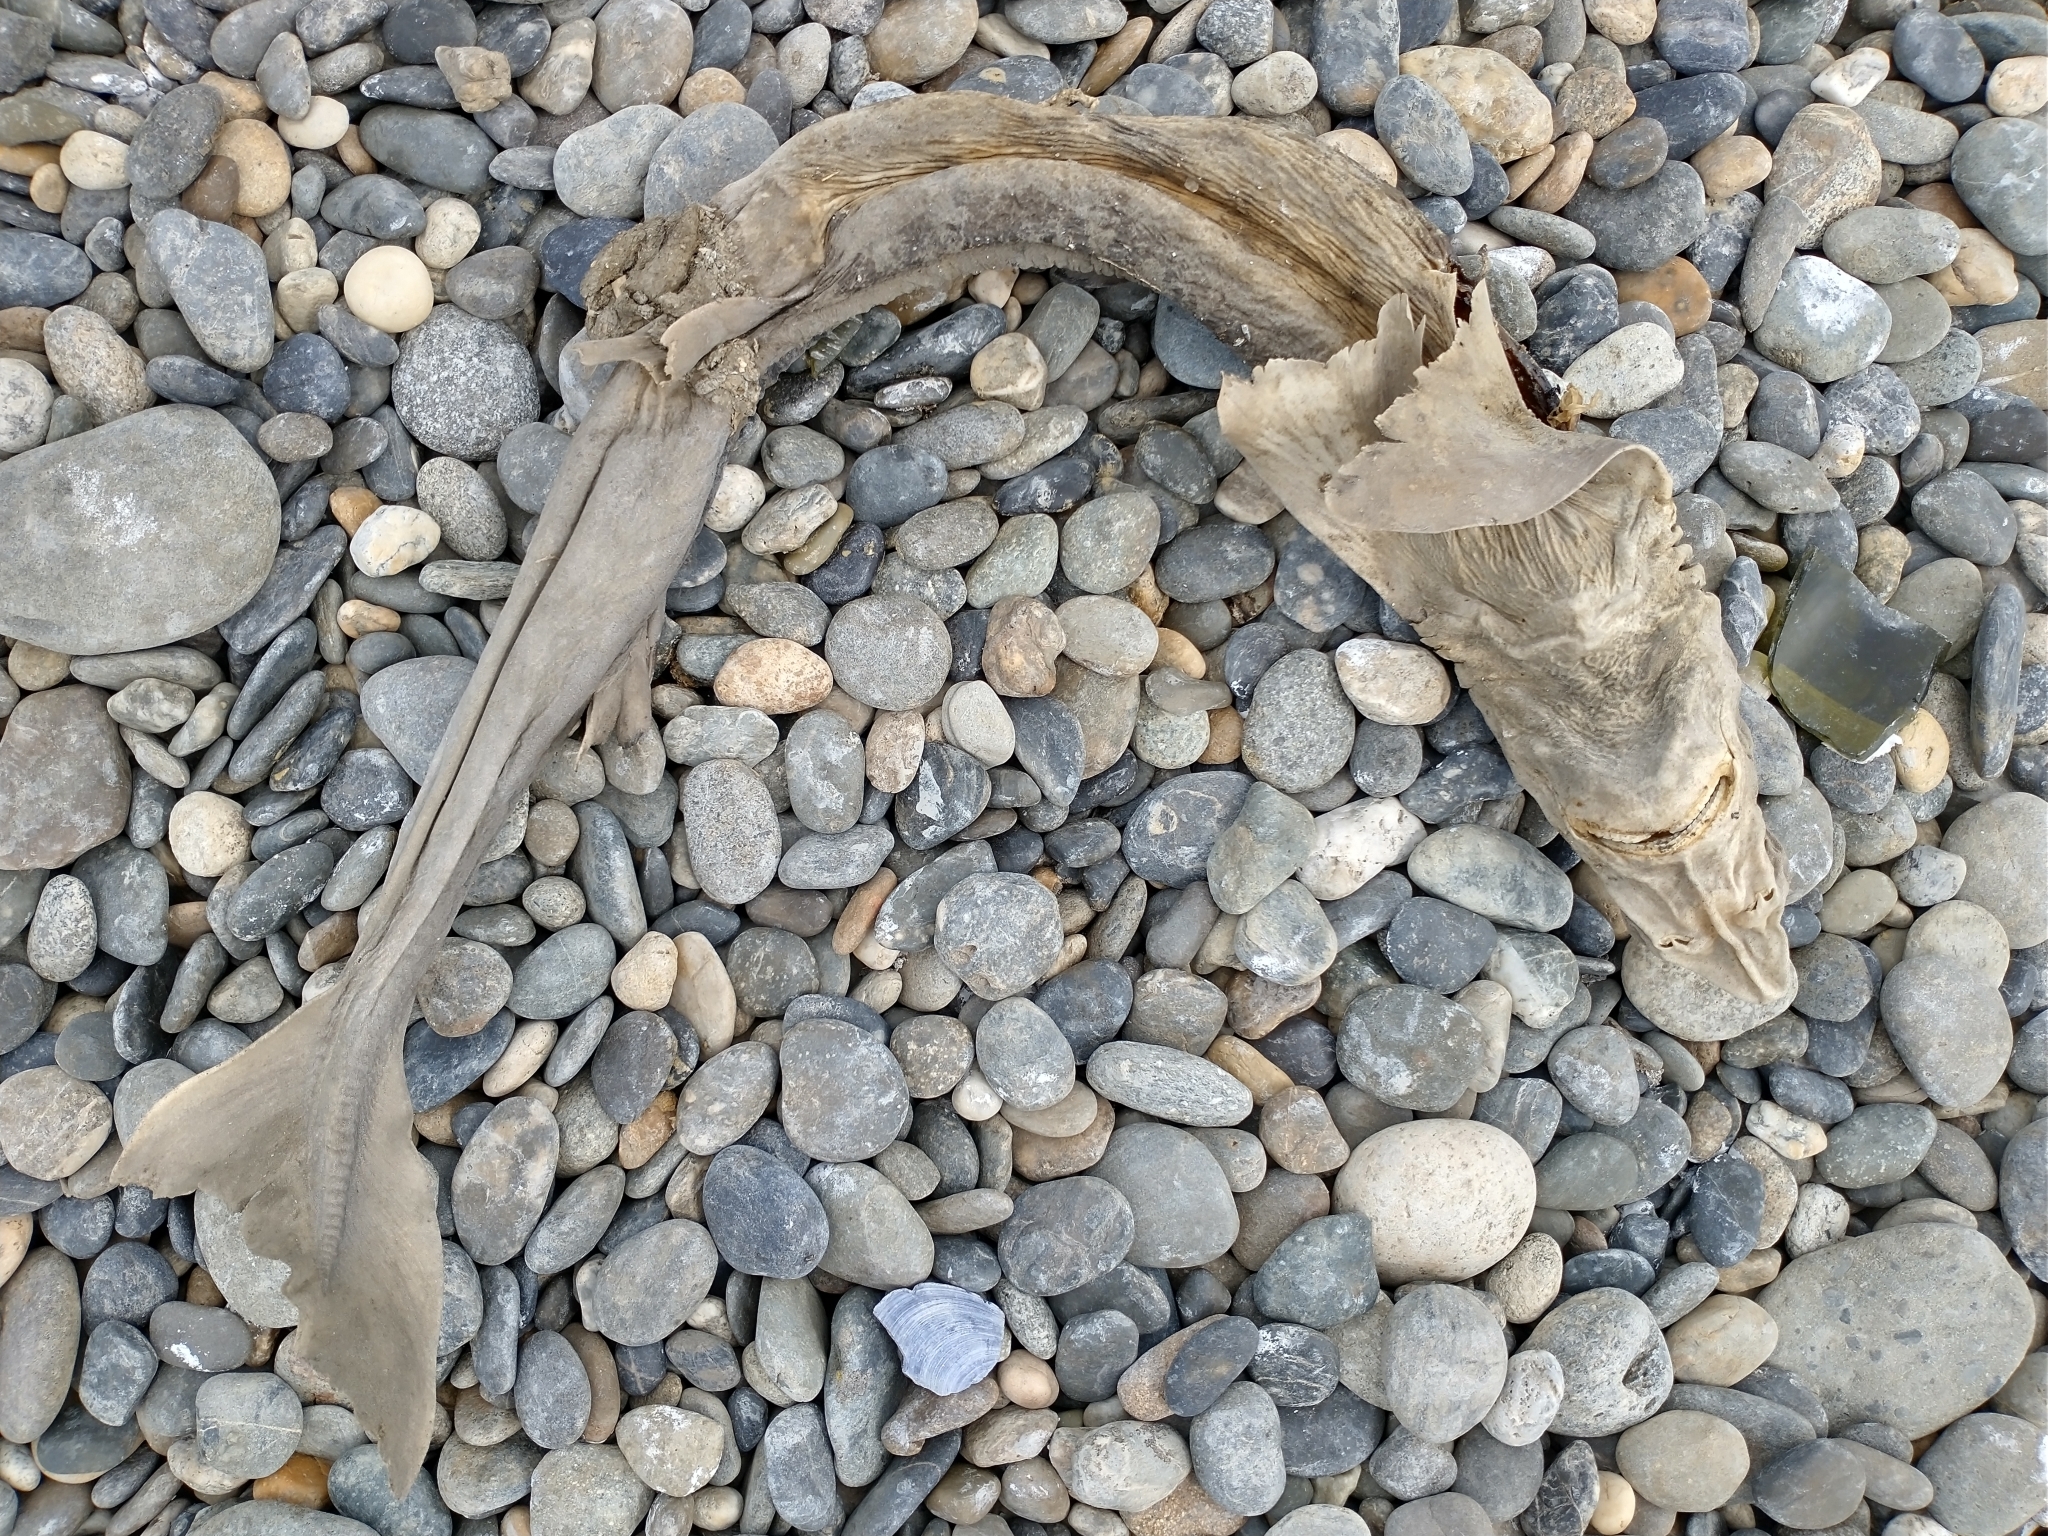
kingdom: Animalia
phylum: Chordata
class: Elasmobranchii
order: Squaliformes
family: Squalidae
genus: Squalus
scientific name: Squalus acanthias
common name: Spurdog
